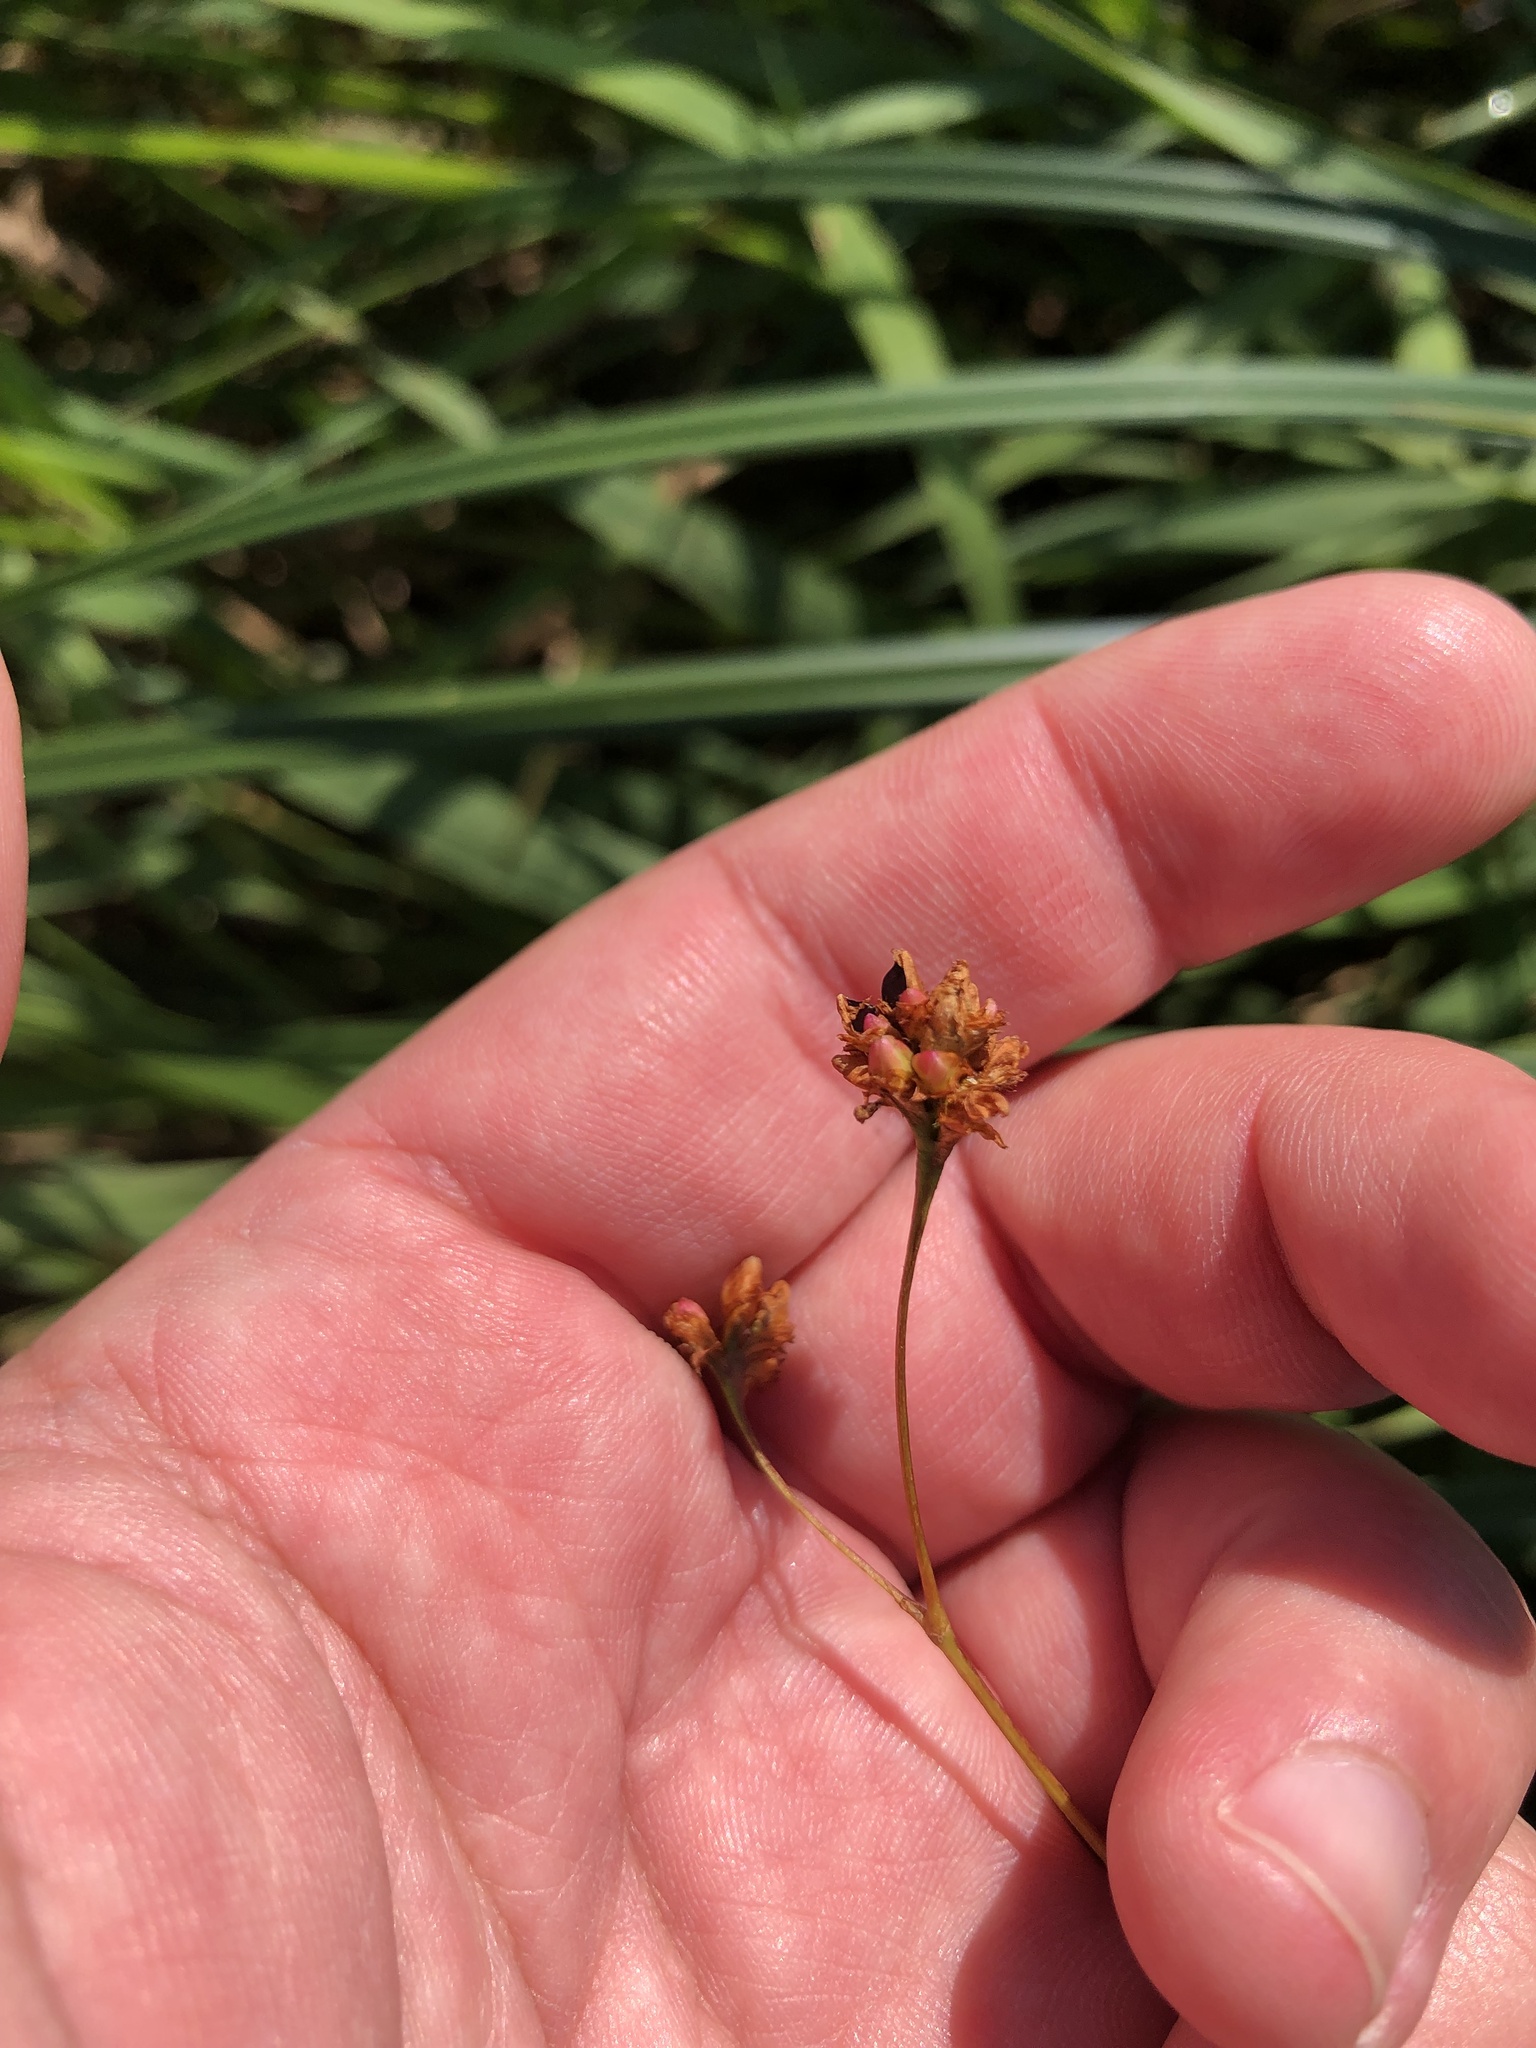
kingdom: Plantae
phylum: Tracheophyta
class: Magnoliopsida
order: Caryophyllales
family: Polygonaceae
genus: Persicaria
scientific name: Persicaria sagittata
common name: American tearthumb
